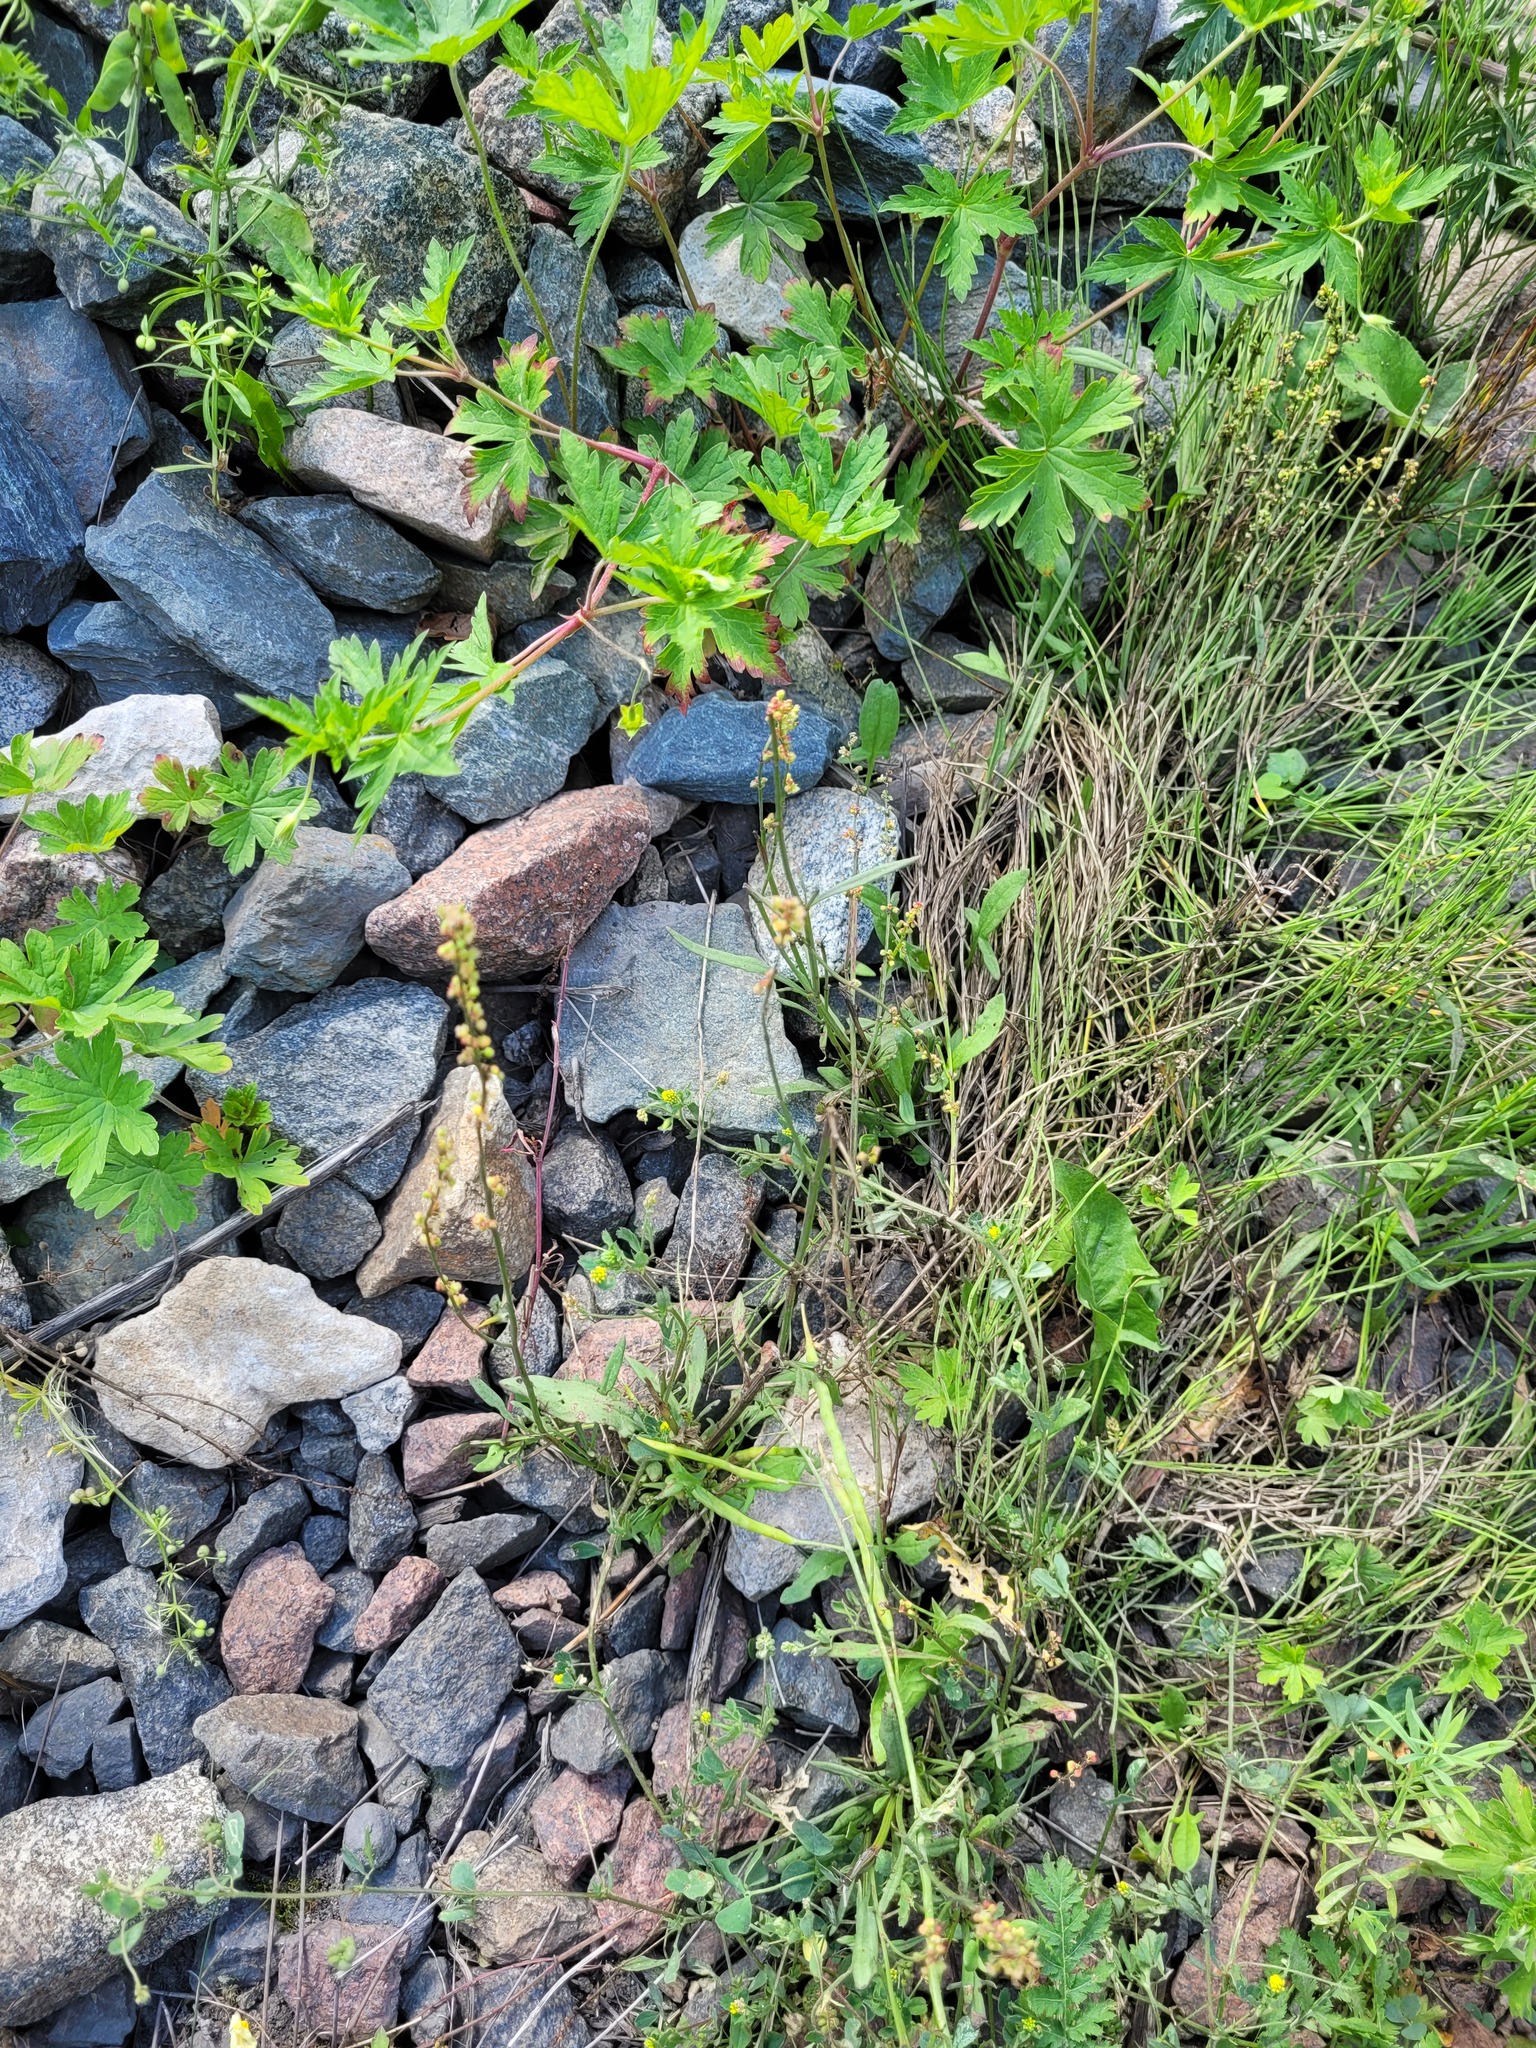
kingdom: Plantae
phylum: Tracheophyta
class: Magnoliopsida
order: Caryophyllales
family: Polygonaceae
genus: Rumex
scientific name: Rumex acetosella
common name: Common sheep sorrel
